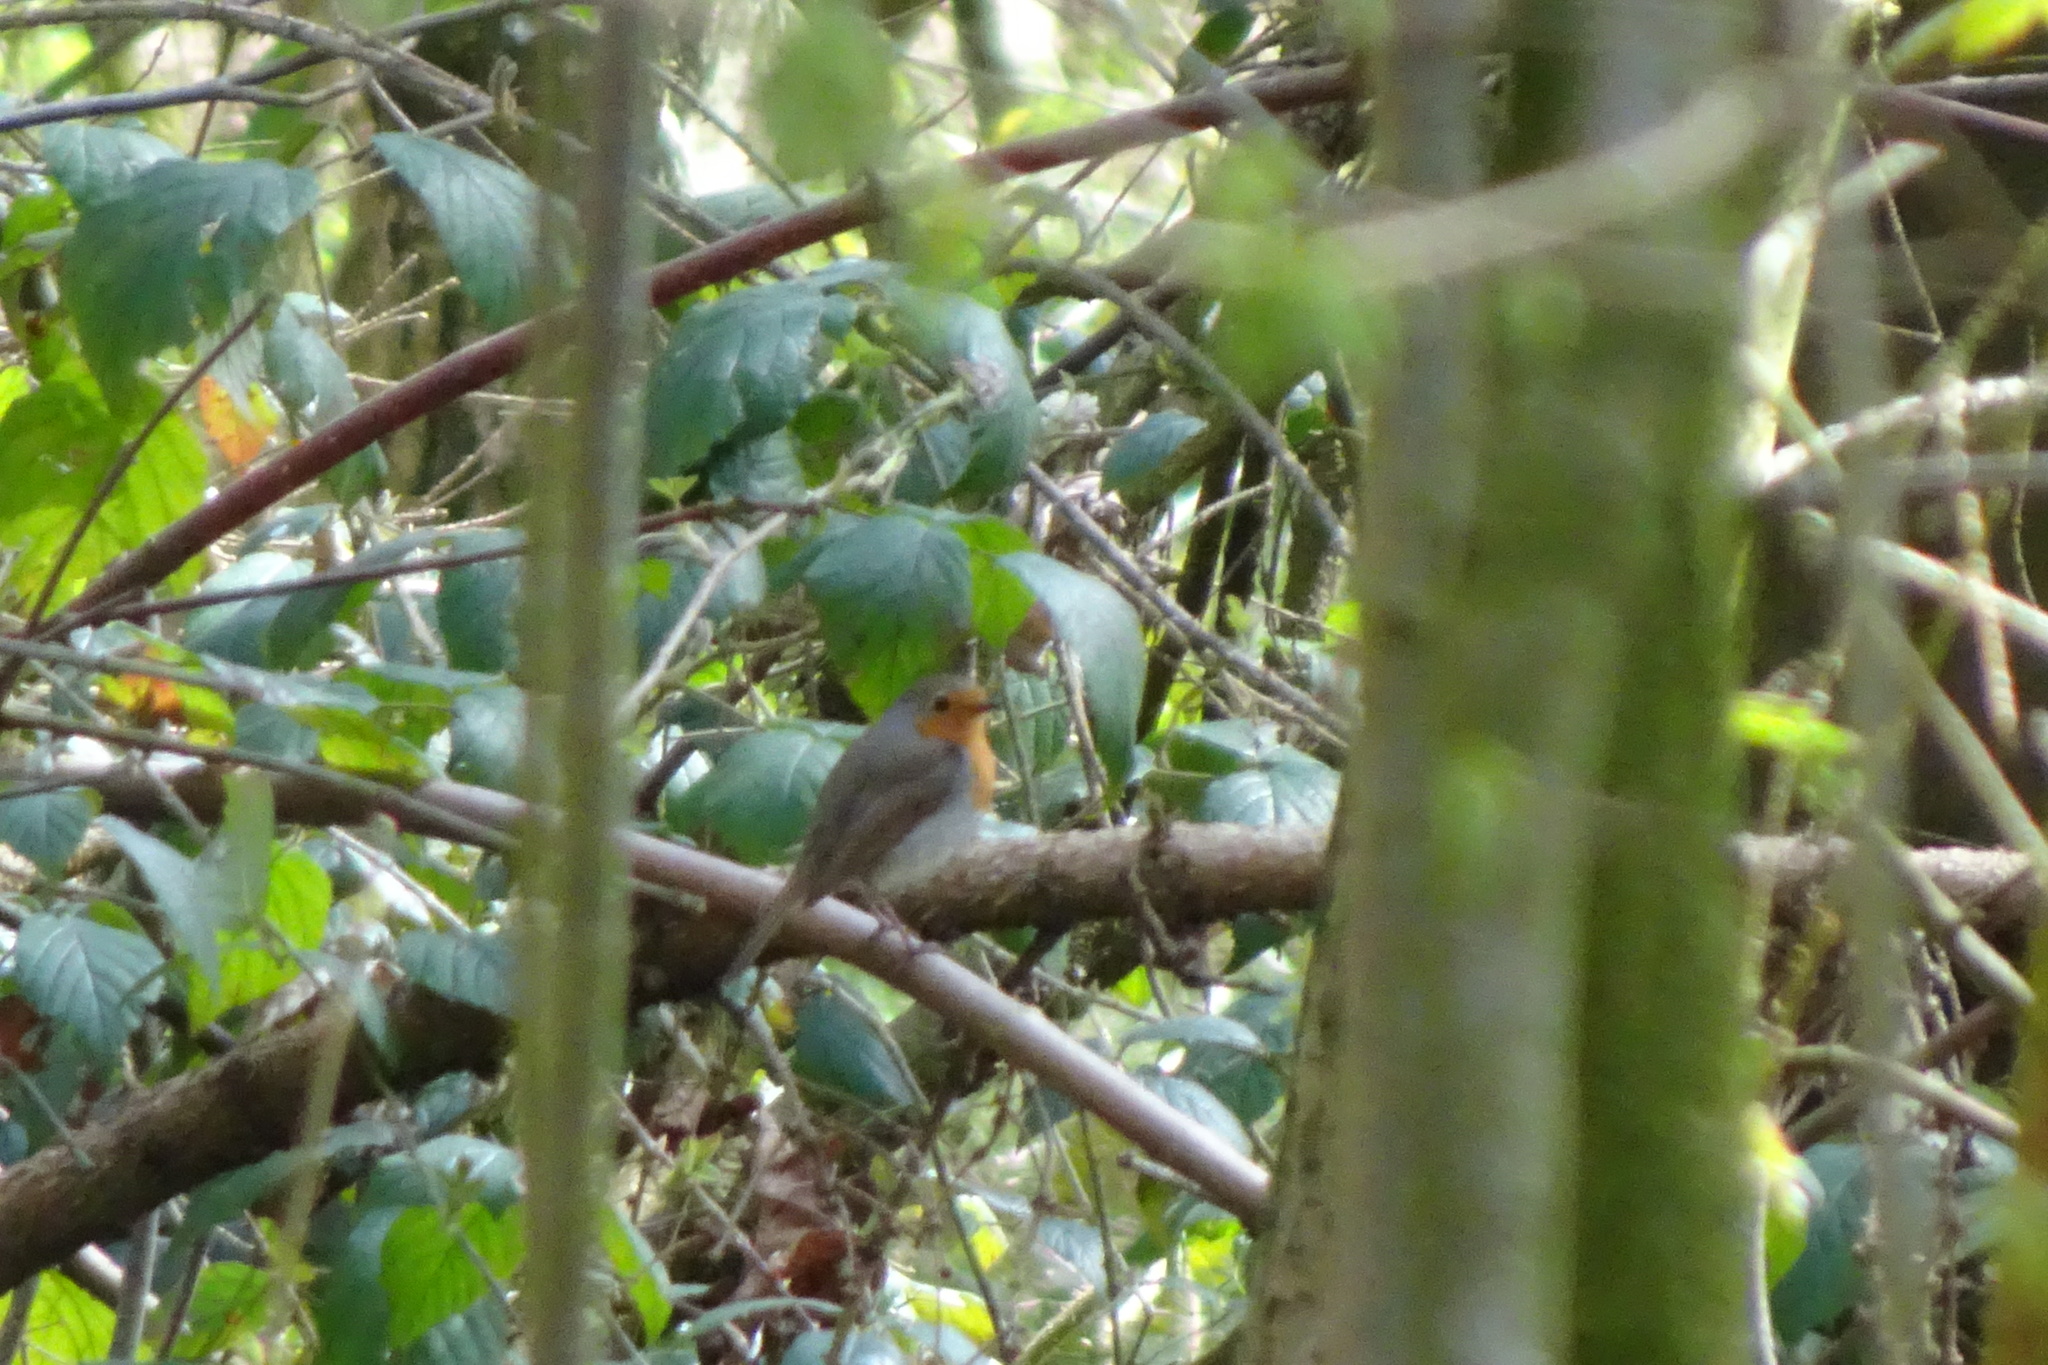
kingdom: Animalia
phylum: Chordata
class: Aves
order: Passeriformes
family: Muscicapidae
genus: Erithacus
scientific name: Erithacus rubecula
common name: European robin
